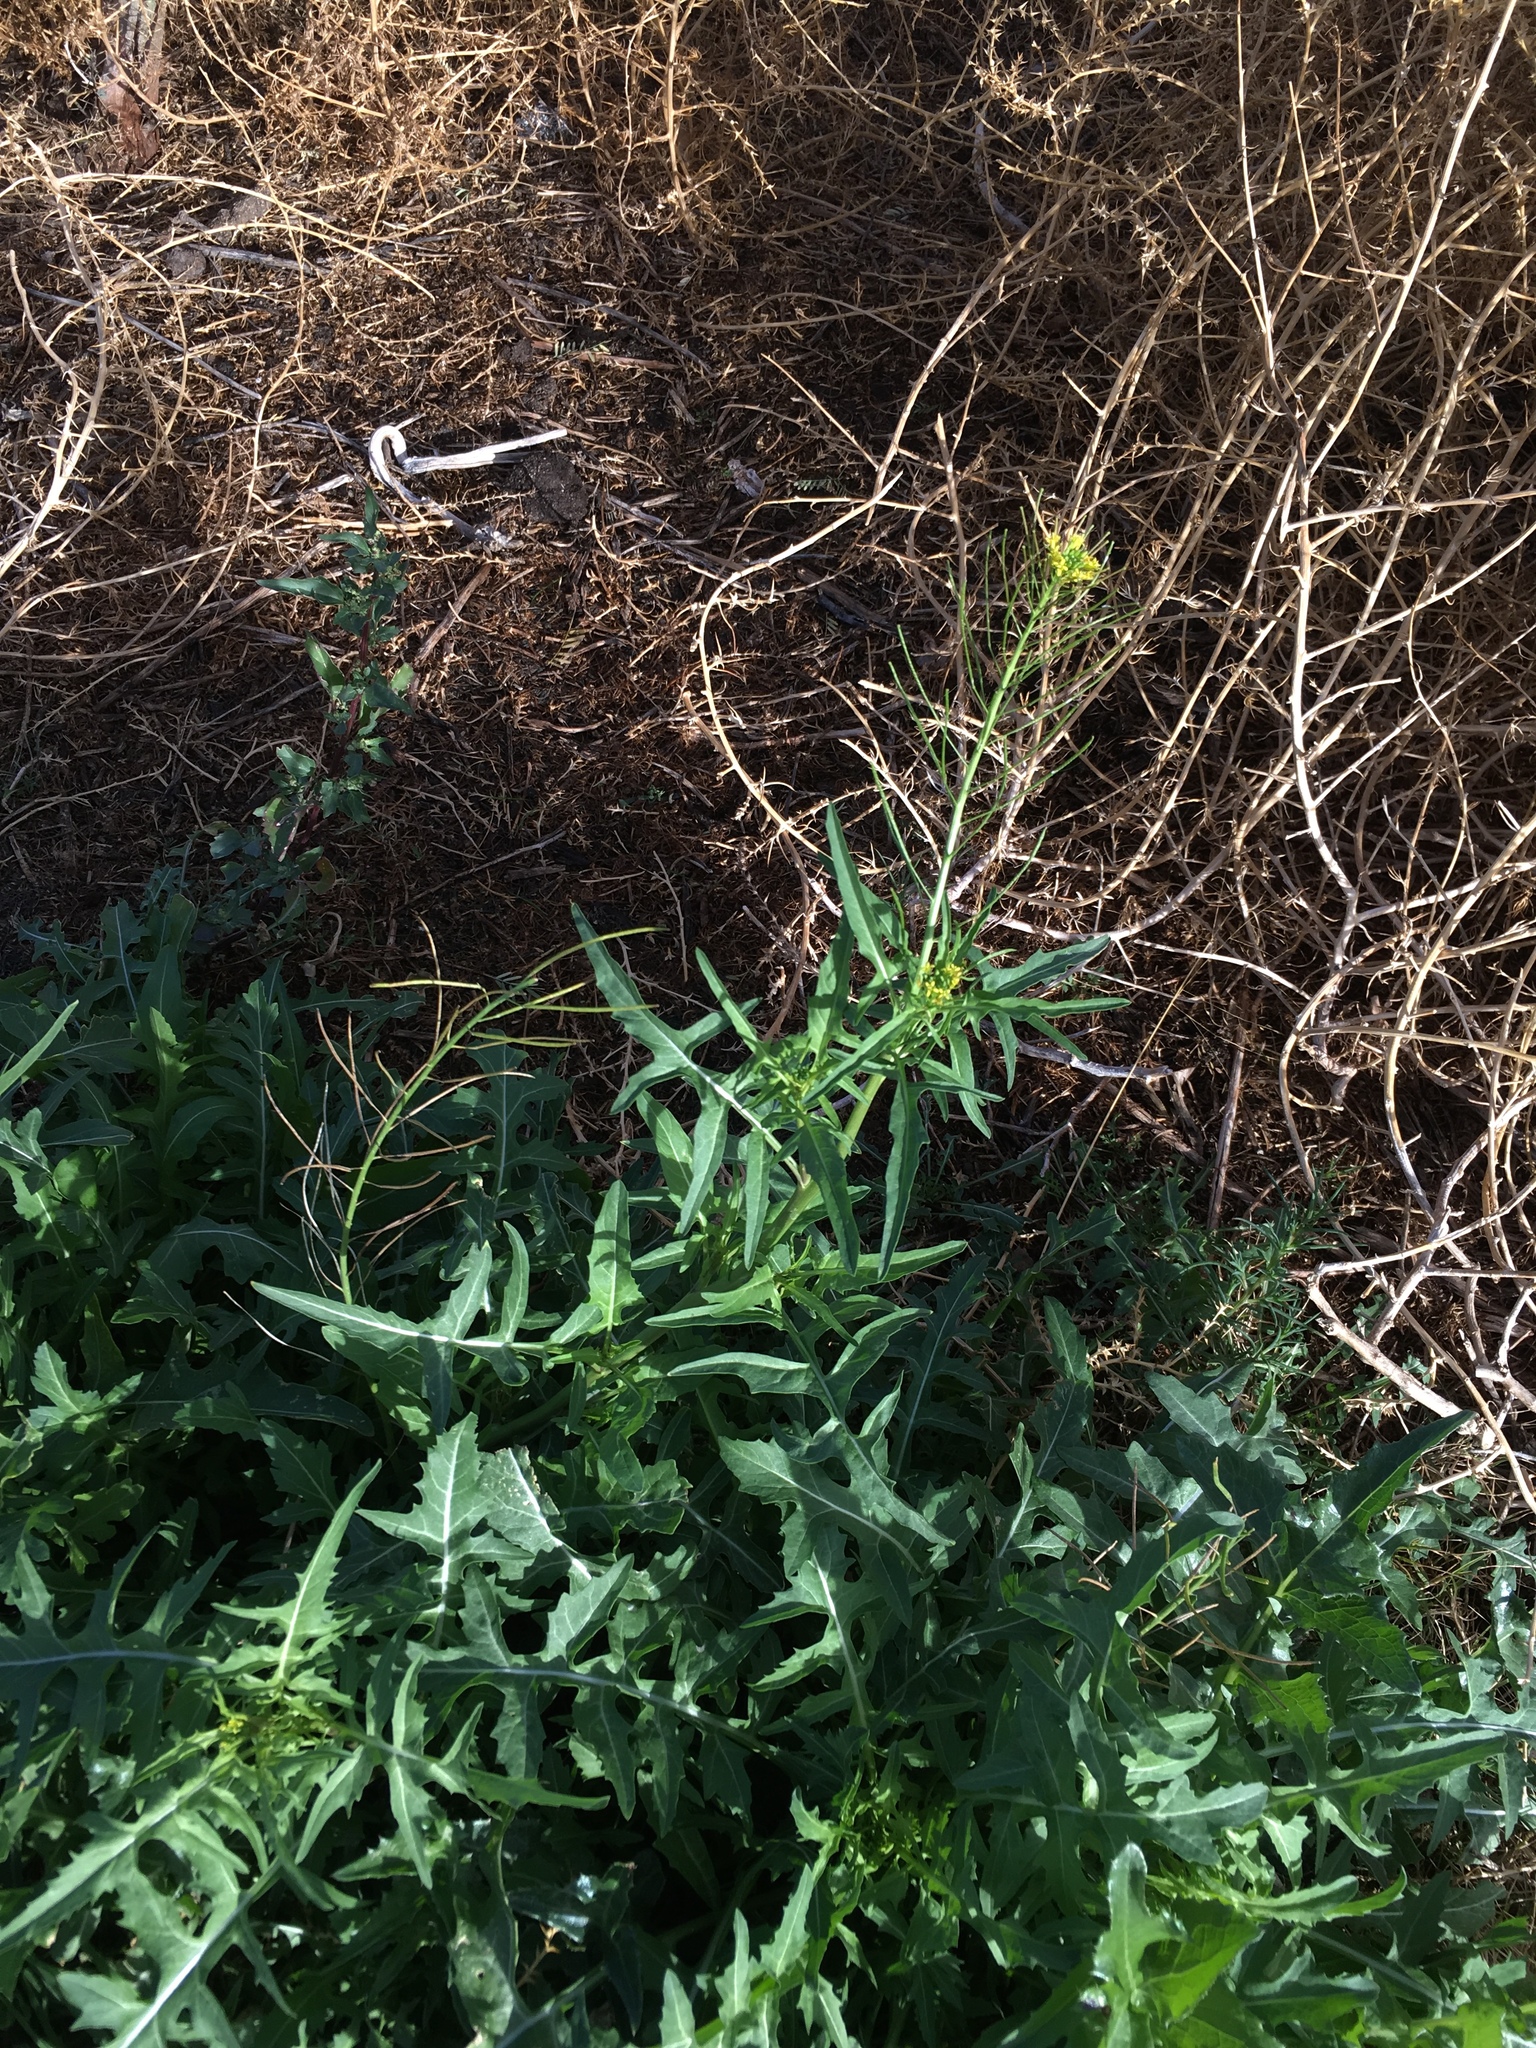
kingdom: Plantae
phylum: Tracheophyta
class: Magnoliopsida
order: Brassicales
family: Brassicaceae
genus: Sisymbrium
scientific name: Sisymbrium irio
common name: London rocket
